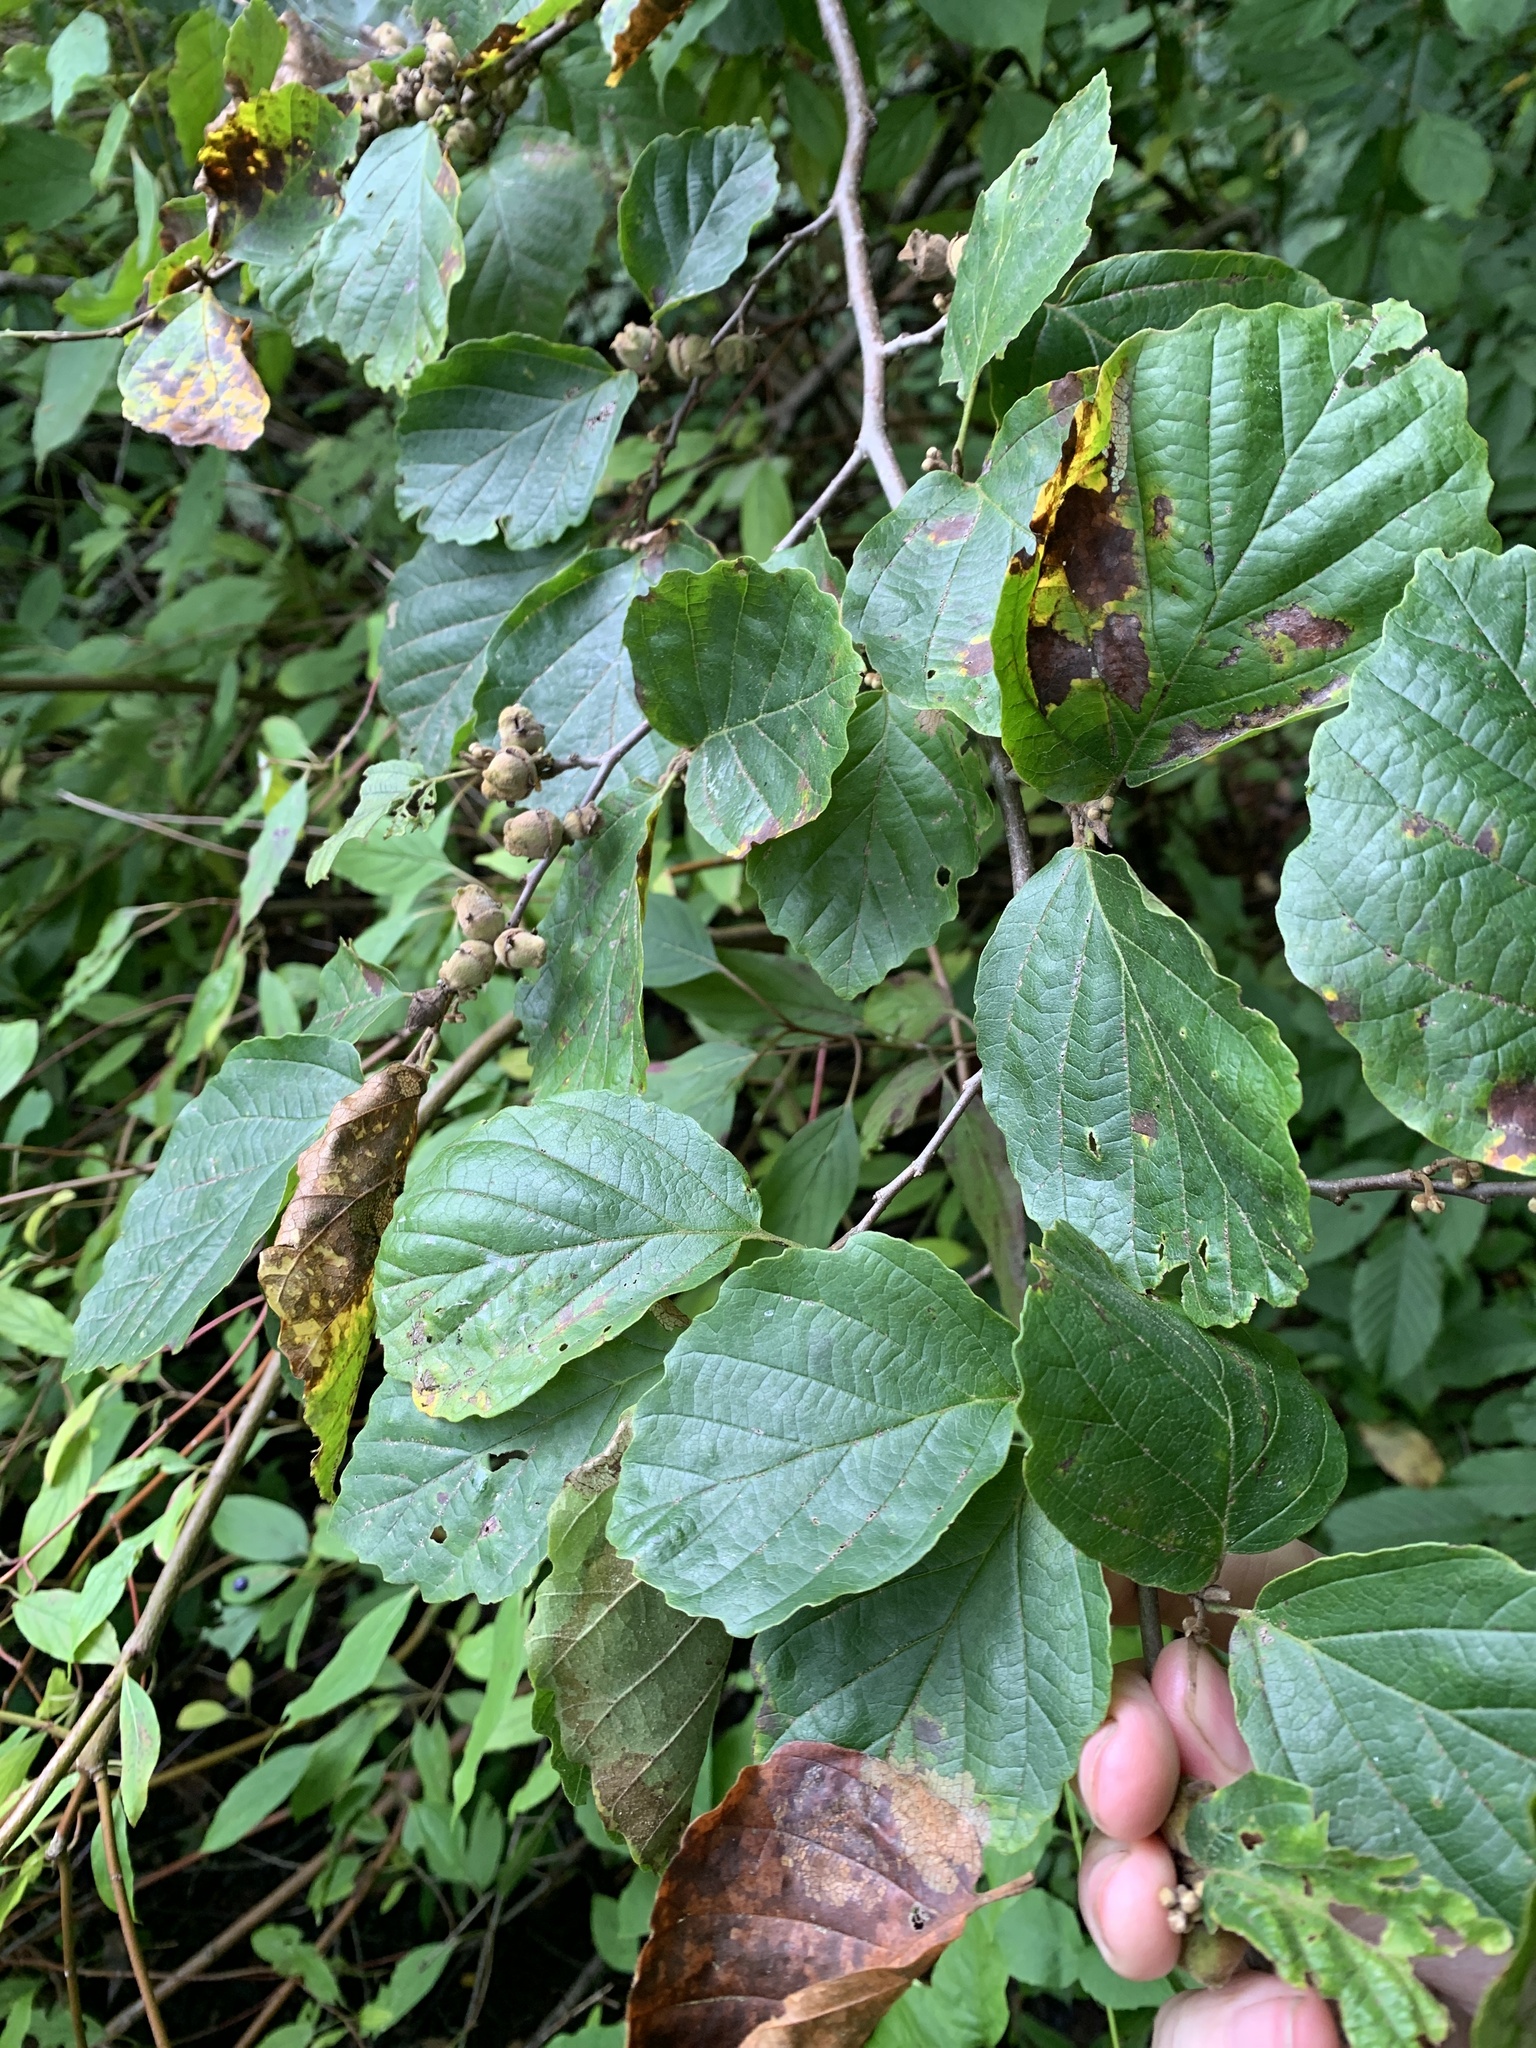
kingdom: Plantae
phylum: Tracheophyta
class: Magnoliopsida
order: Saxifragales
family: Hamamelidaceae
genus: Hamamelis
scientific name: Hamamelis virginiana
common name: Witch-hazel
